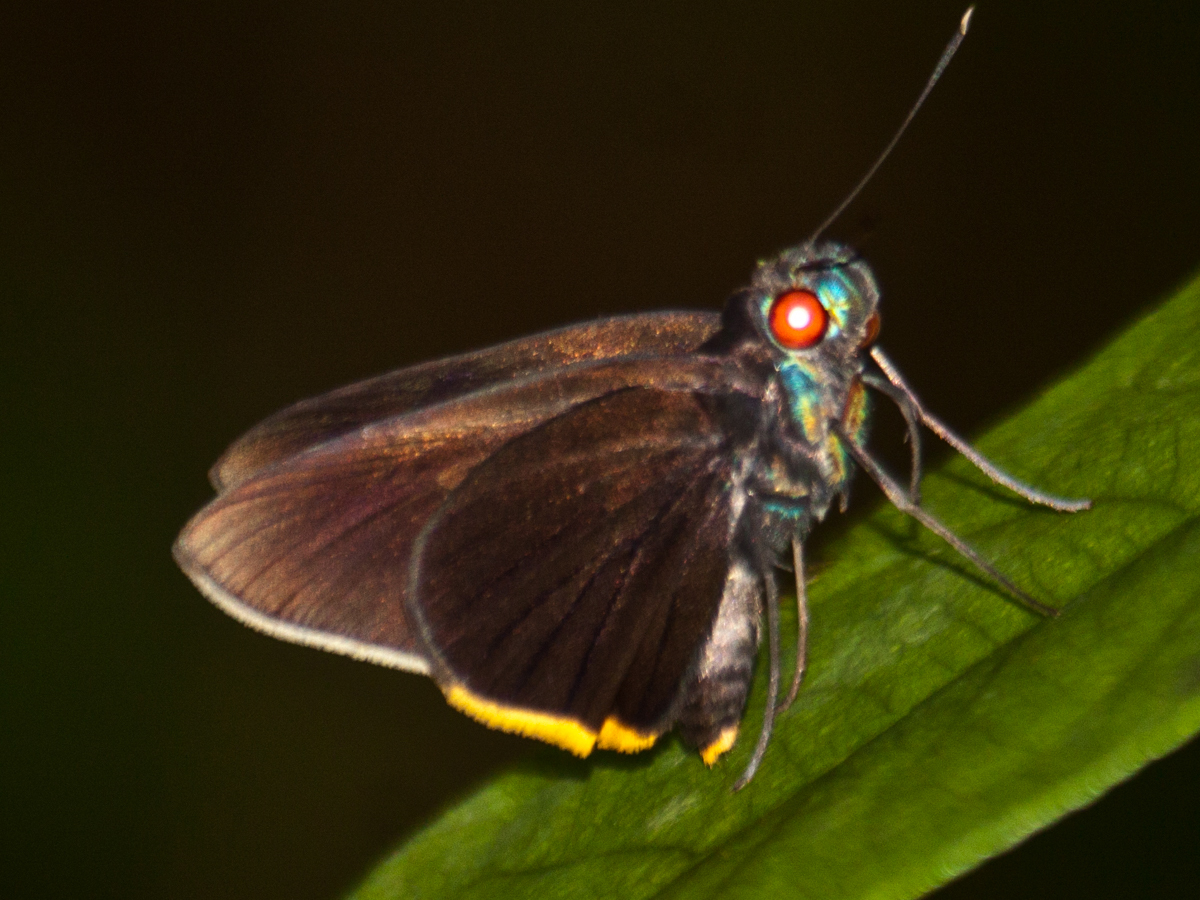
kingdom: Animalia
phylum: Arthropoda
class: Insecta
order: Lepidoptera
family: Hesperiidae
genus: Matapa
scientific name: Matapa sasivarna
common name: Black-veined redeye
